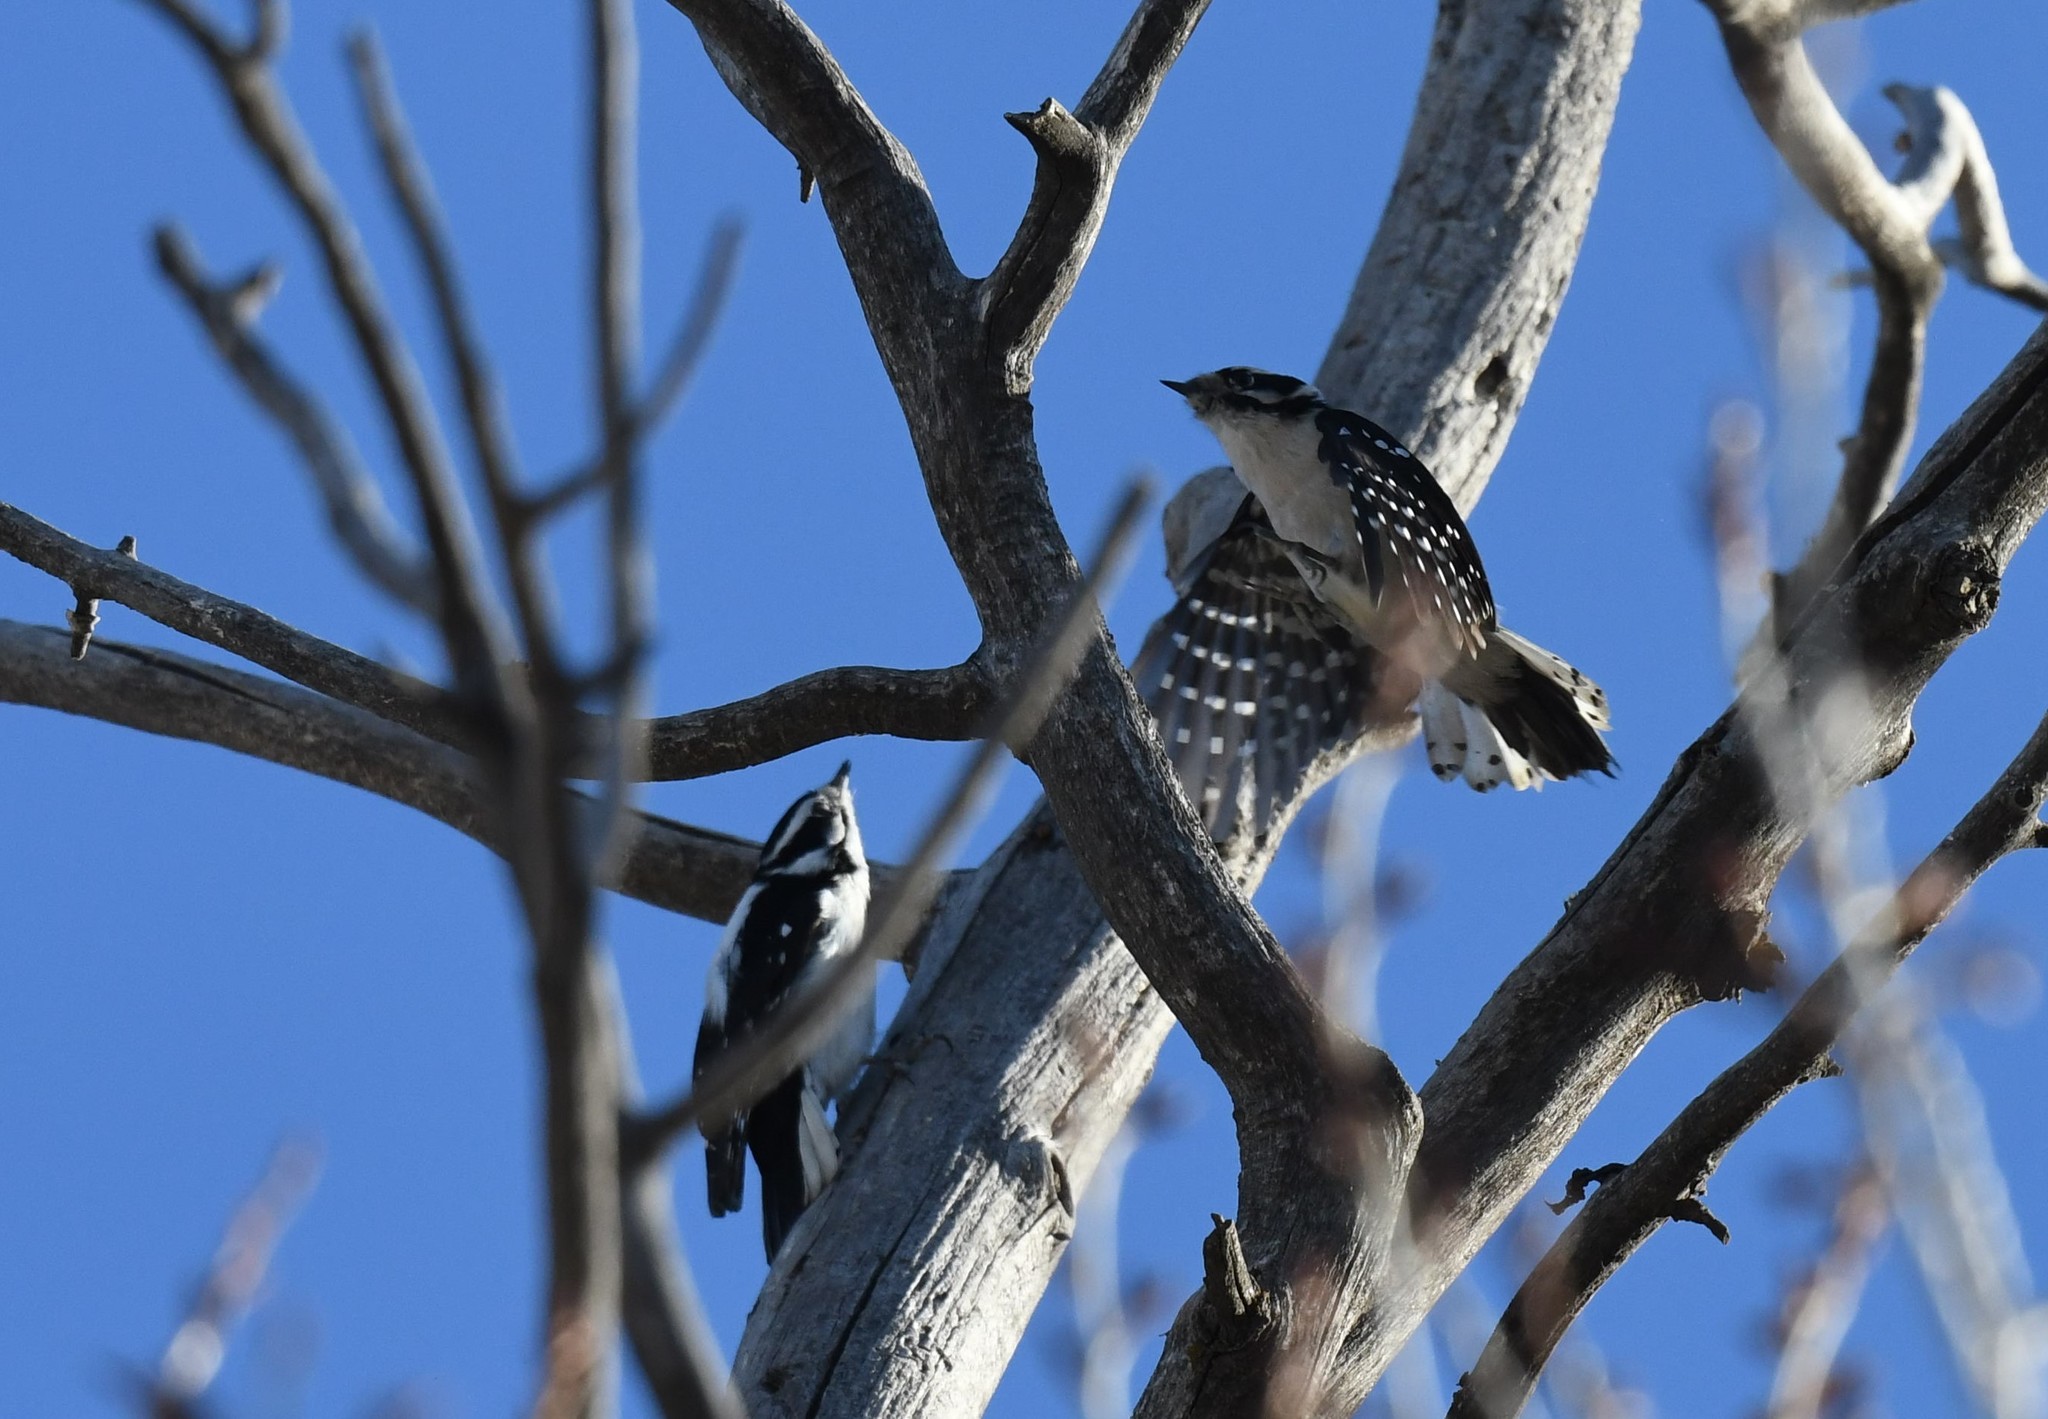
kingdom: Animalia
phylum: Chordata
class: Aves
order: Piciformes
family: Picidae
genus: Dryobates
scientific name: Dryobates pubescens
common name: Downy woodpecker
